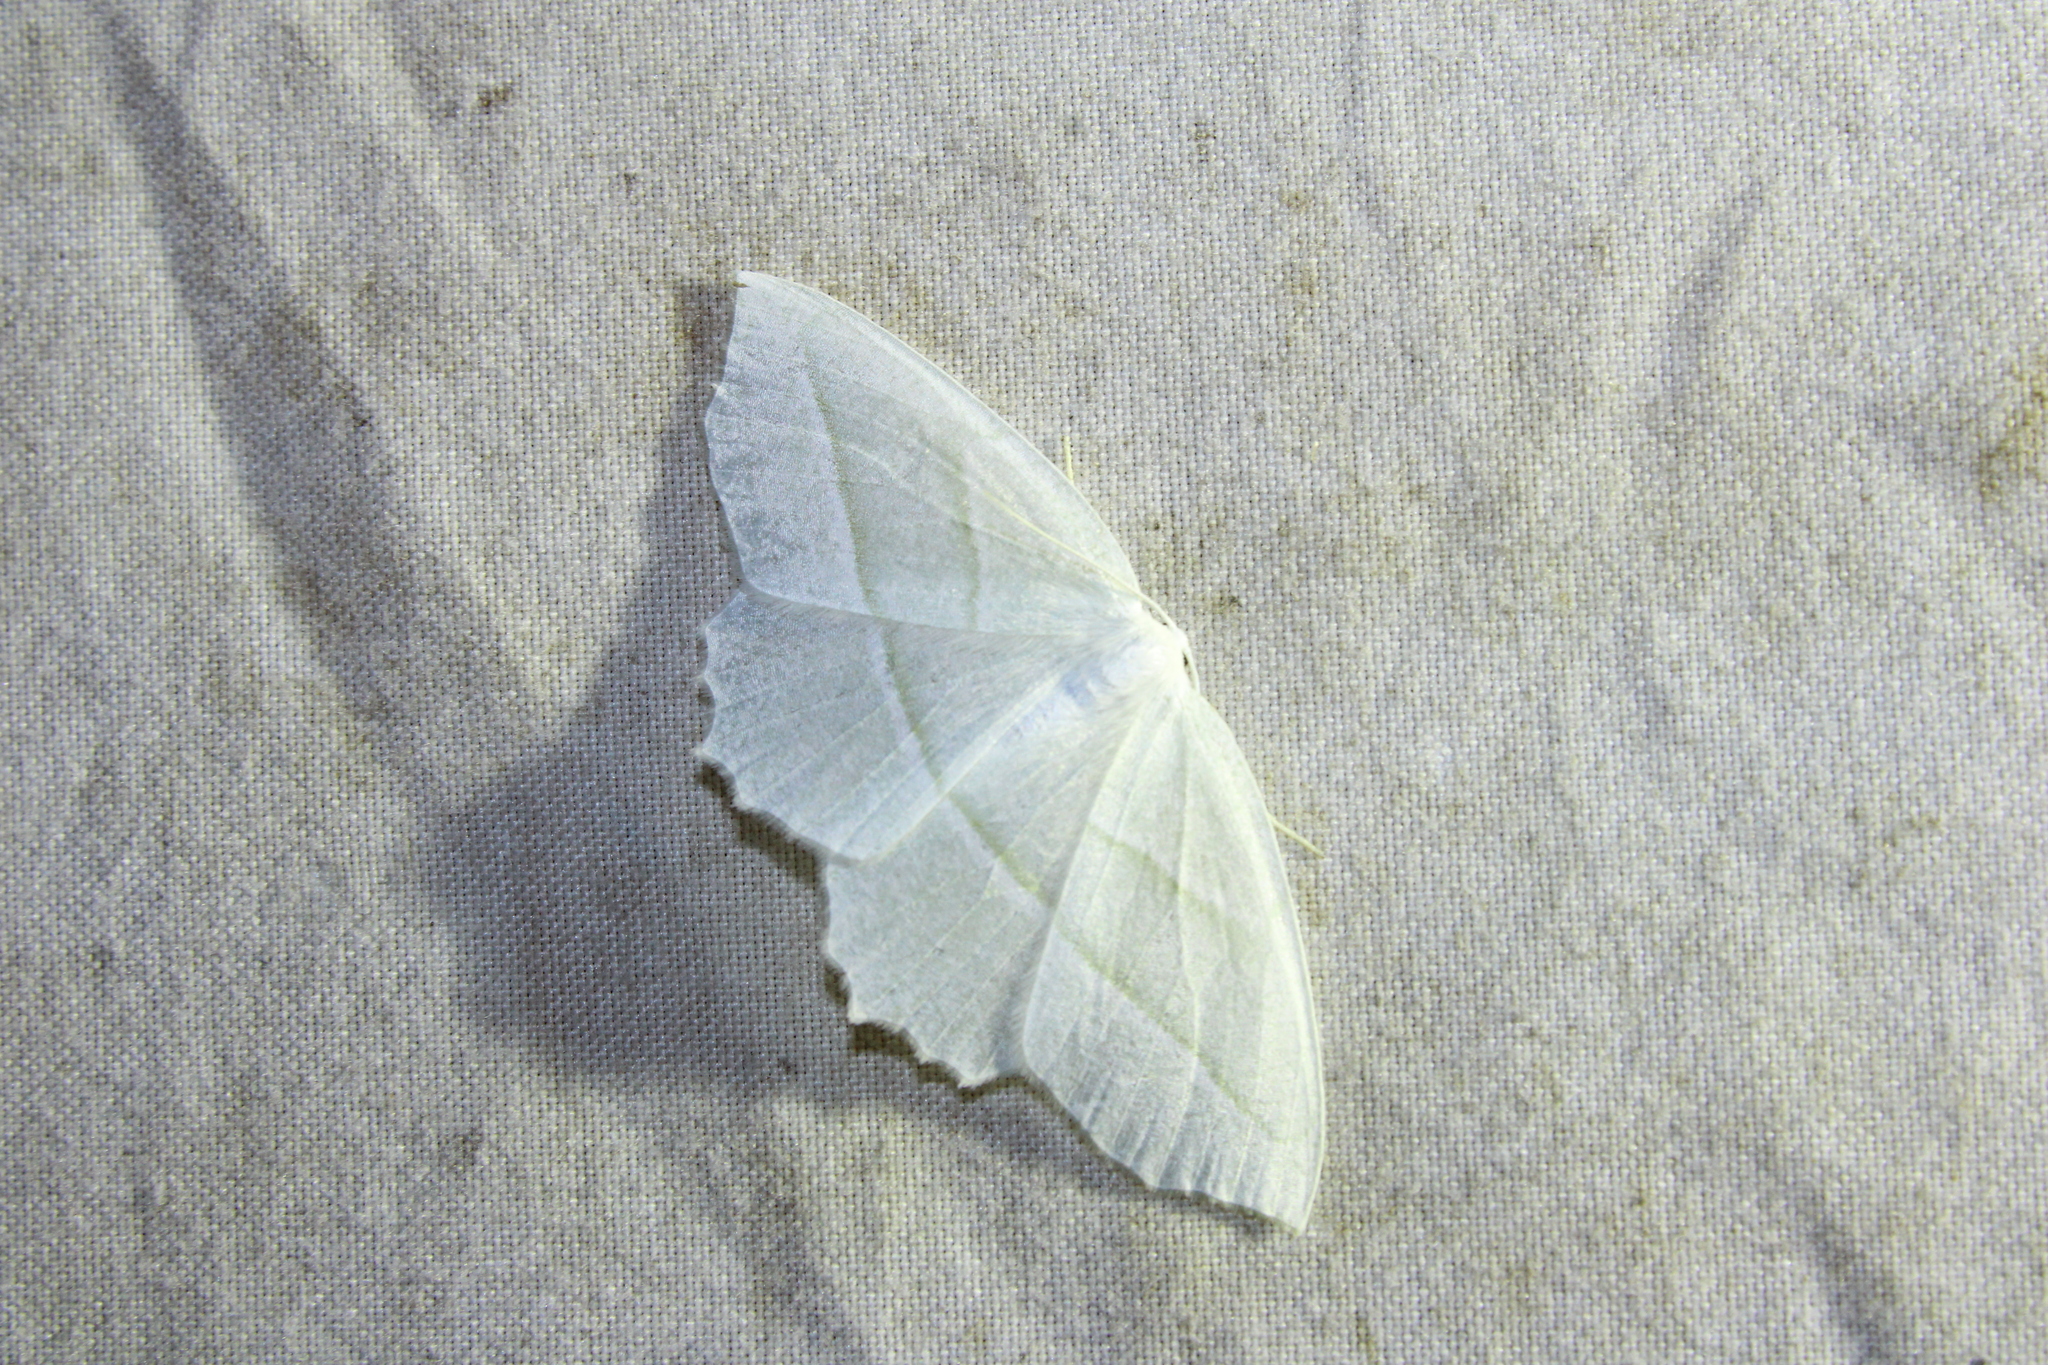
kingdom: Animalia
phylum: Arthropoda
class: Insecta
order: Lepidoptera
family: Geometridae
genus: Campaea
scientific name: Campaea perlata
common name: Fringed looper
